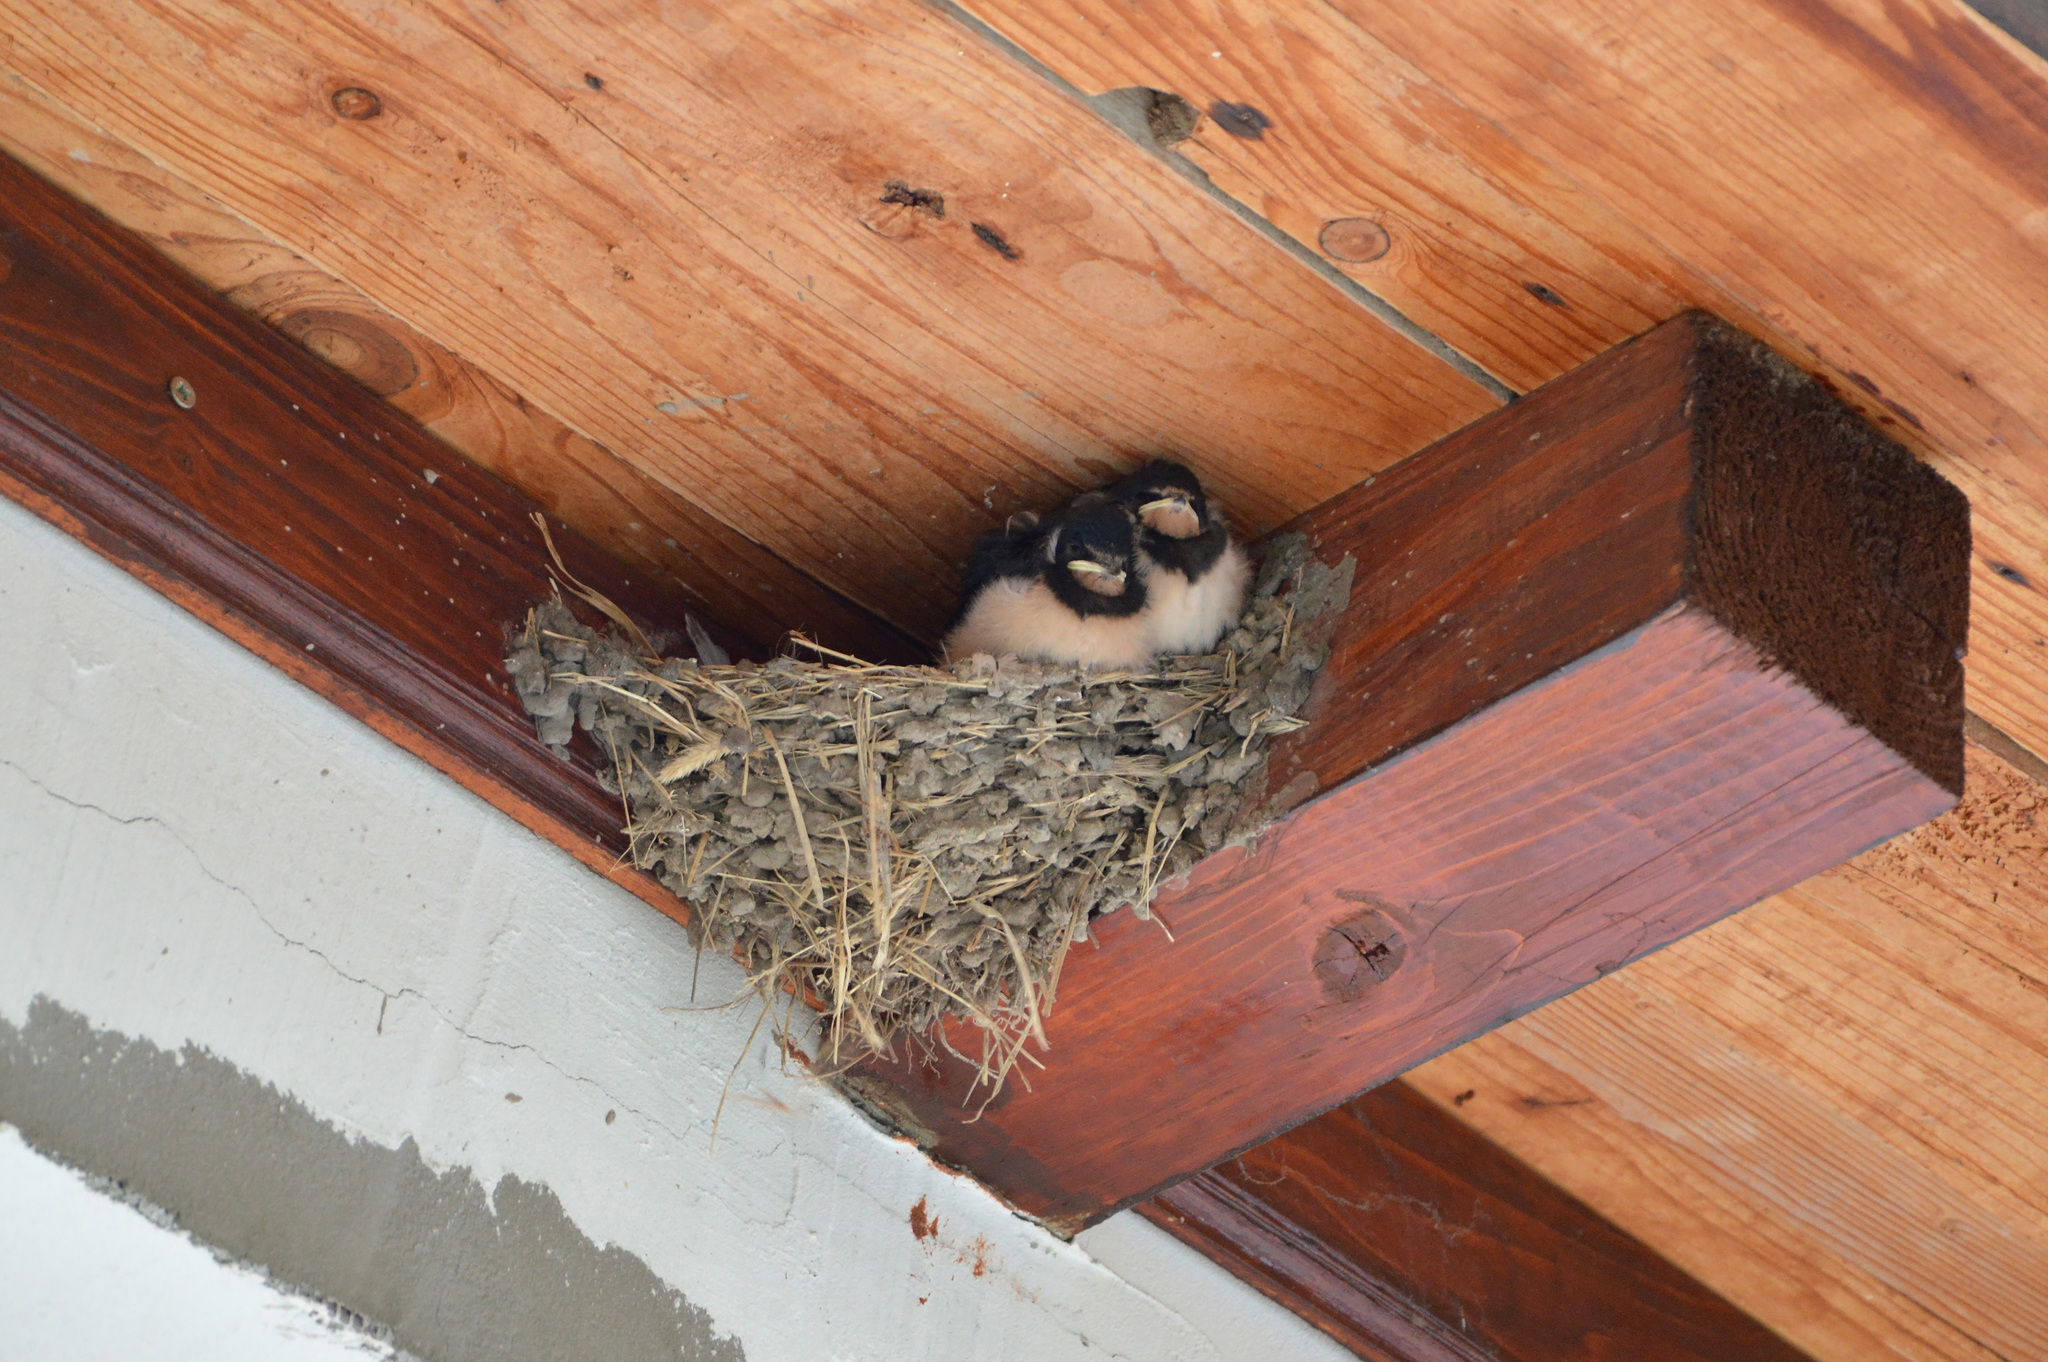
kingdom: Animalia
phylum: Chordata
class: Aves
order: Passeriformes
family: Hirundinidae
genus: Hirundo
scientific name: Hirundo rustica
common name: Barn swallow
